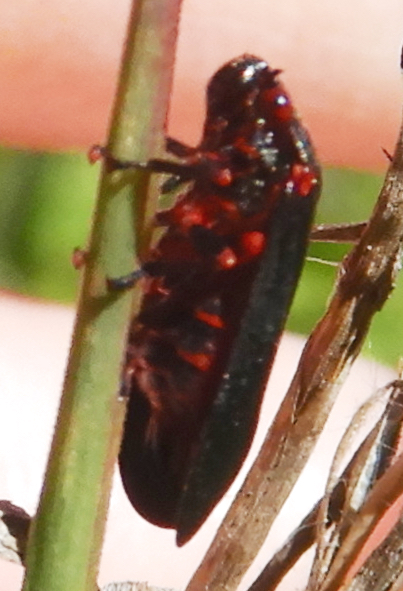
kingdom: Animalia
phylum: Arthropoda
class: Insecta
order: Hemiptera
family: Cercopidae
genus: Prosapia
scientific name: Prosapia ignipectus
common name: Black spittlebug
